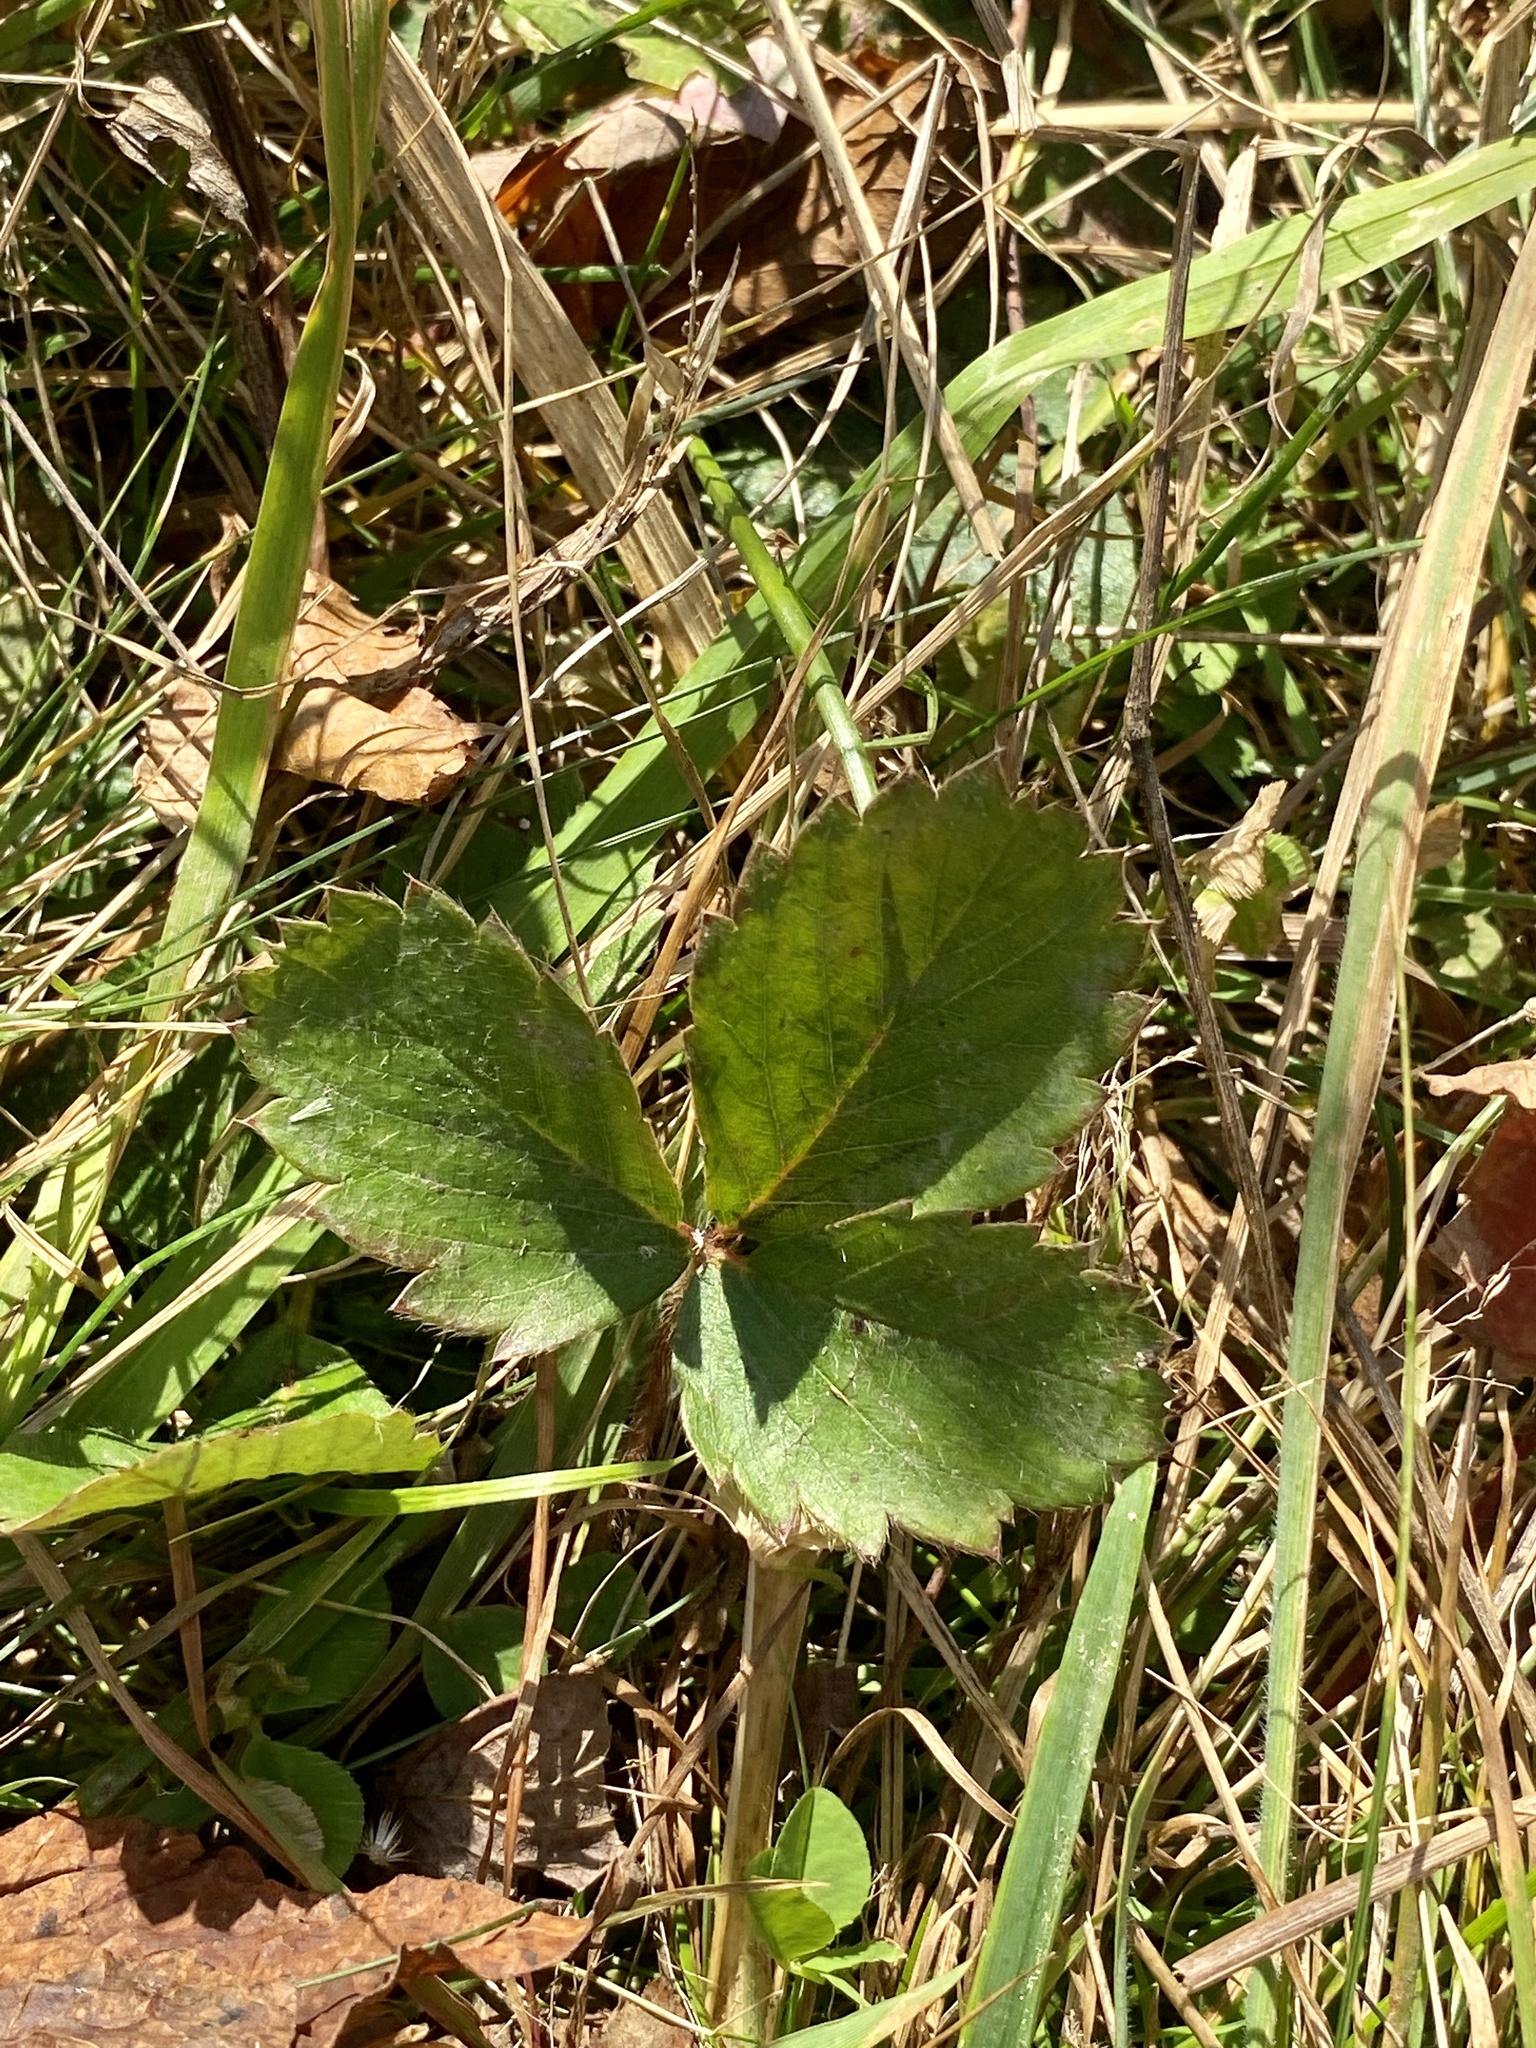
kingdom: Plantae
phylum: Tracheophyta
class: Magnoliopsida
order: Rosales
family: Rosaceae
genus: Fragaria
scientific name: Fragaria virginiana
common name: Thickleaved wild strawberry
